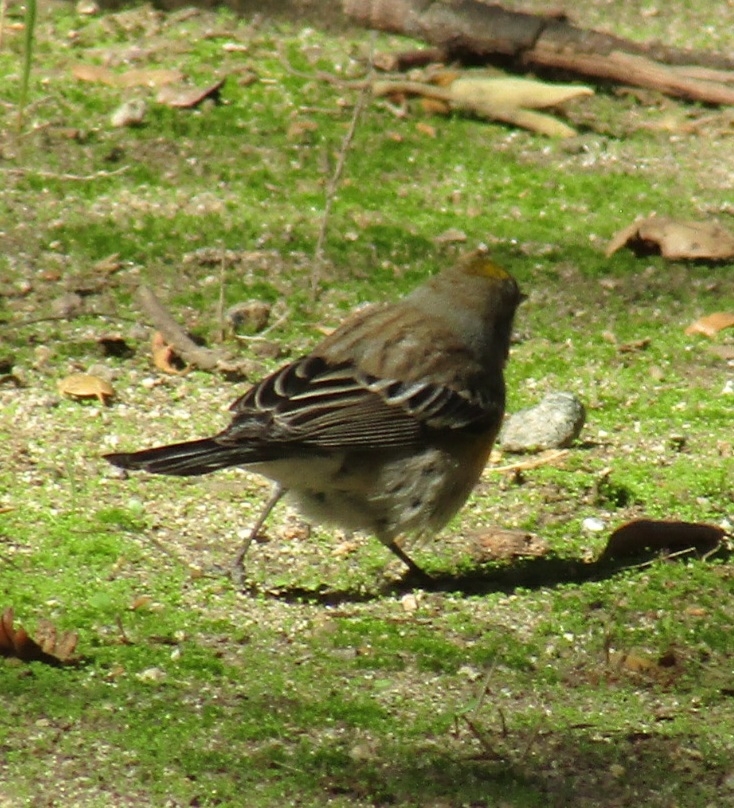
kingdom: Animalia
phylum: Chordata
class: Aves
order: Passeriformes
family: Parulidae
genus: Setophaga
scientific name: Setophaga coronata
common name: Myrtle warbler
